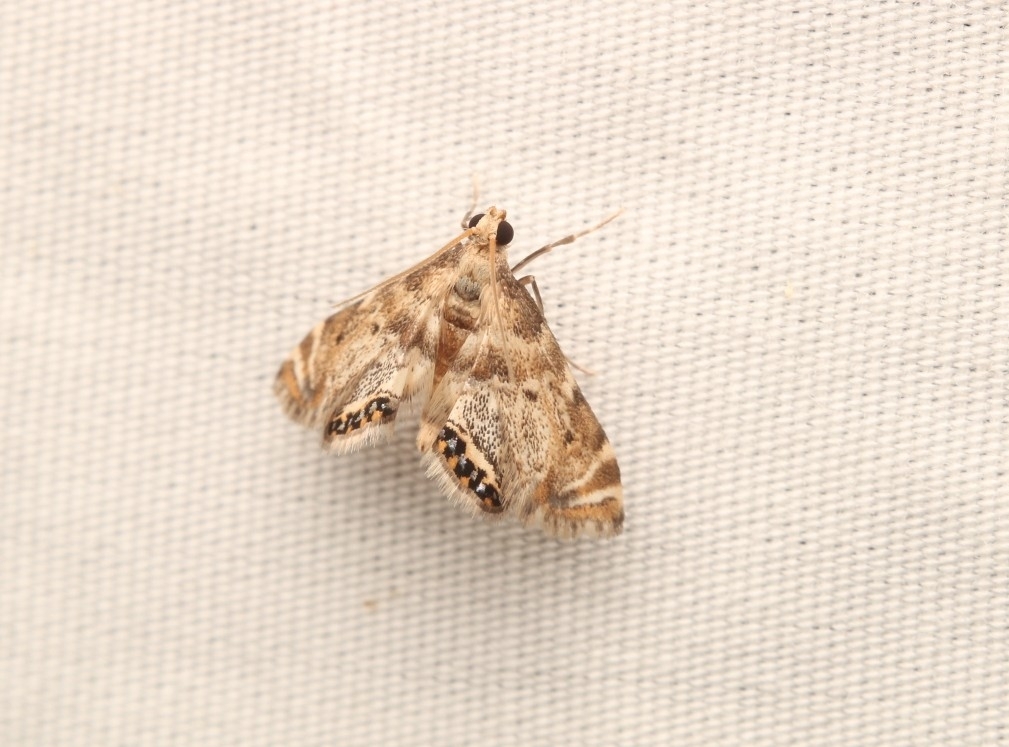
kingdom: Animalia
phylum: Arthropoda
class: Insecta
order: Lepidoptera
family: Crambidae
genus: Petrophila
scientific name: Petrophila fulicalis
